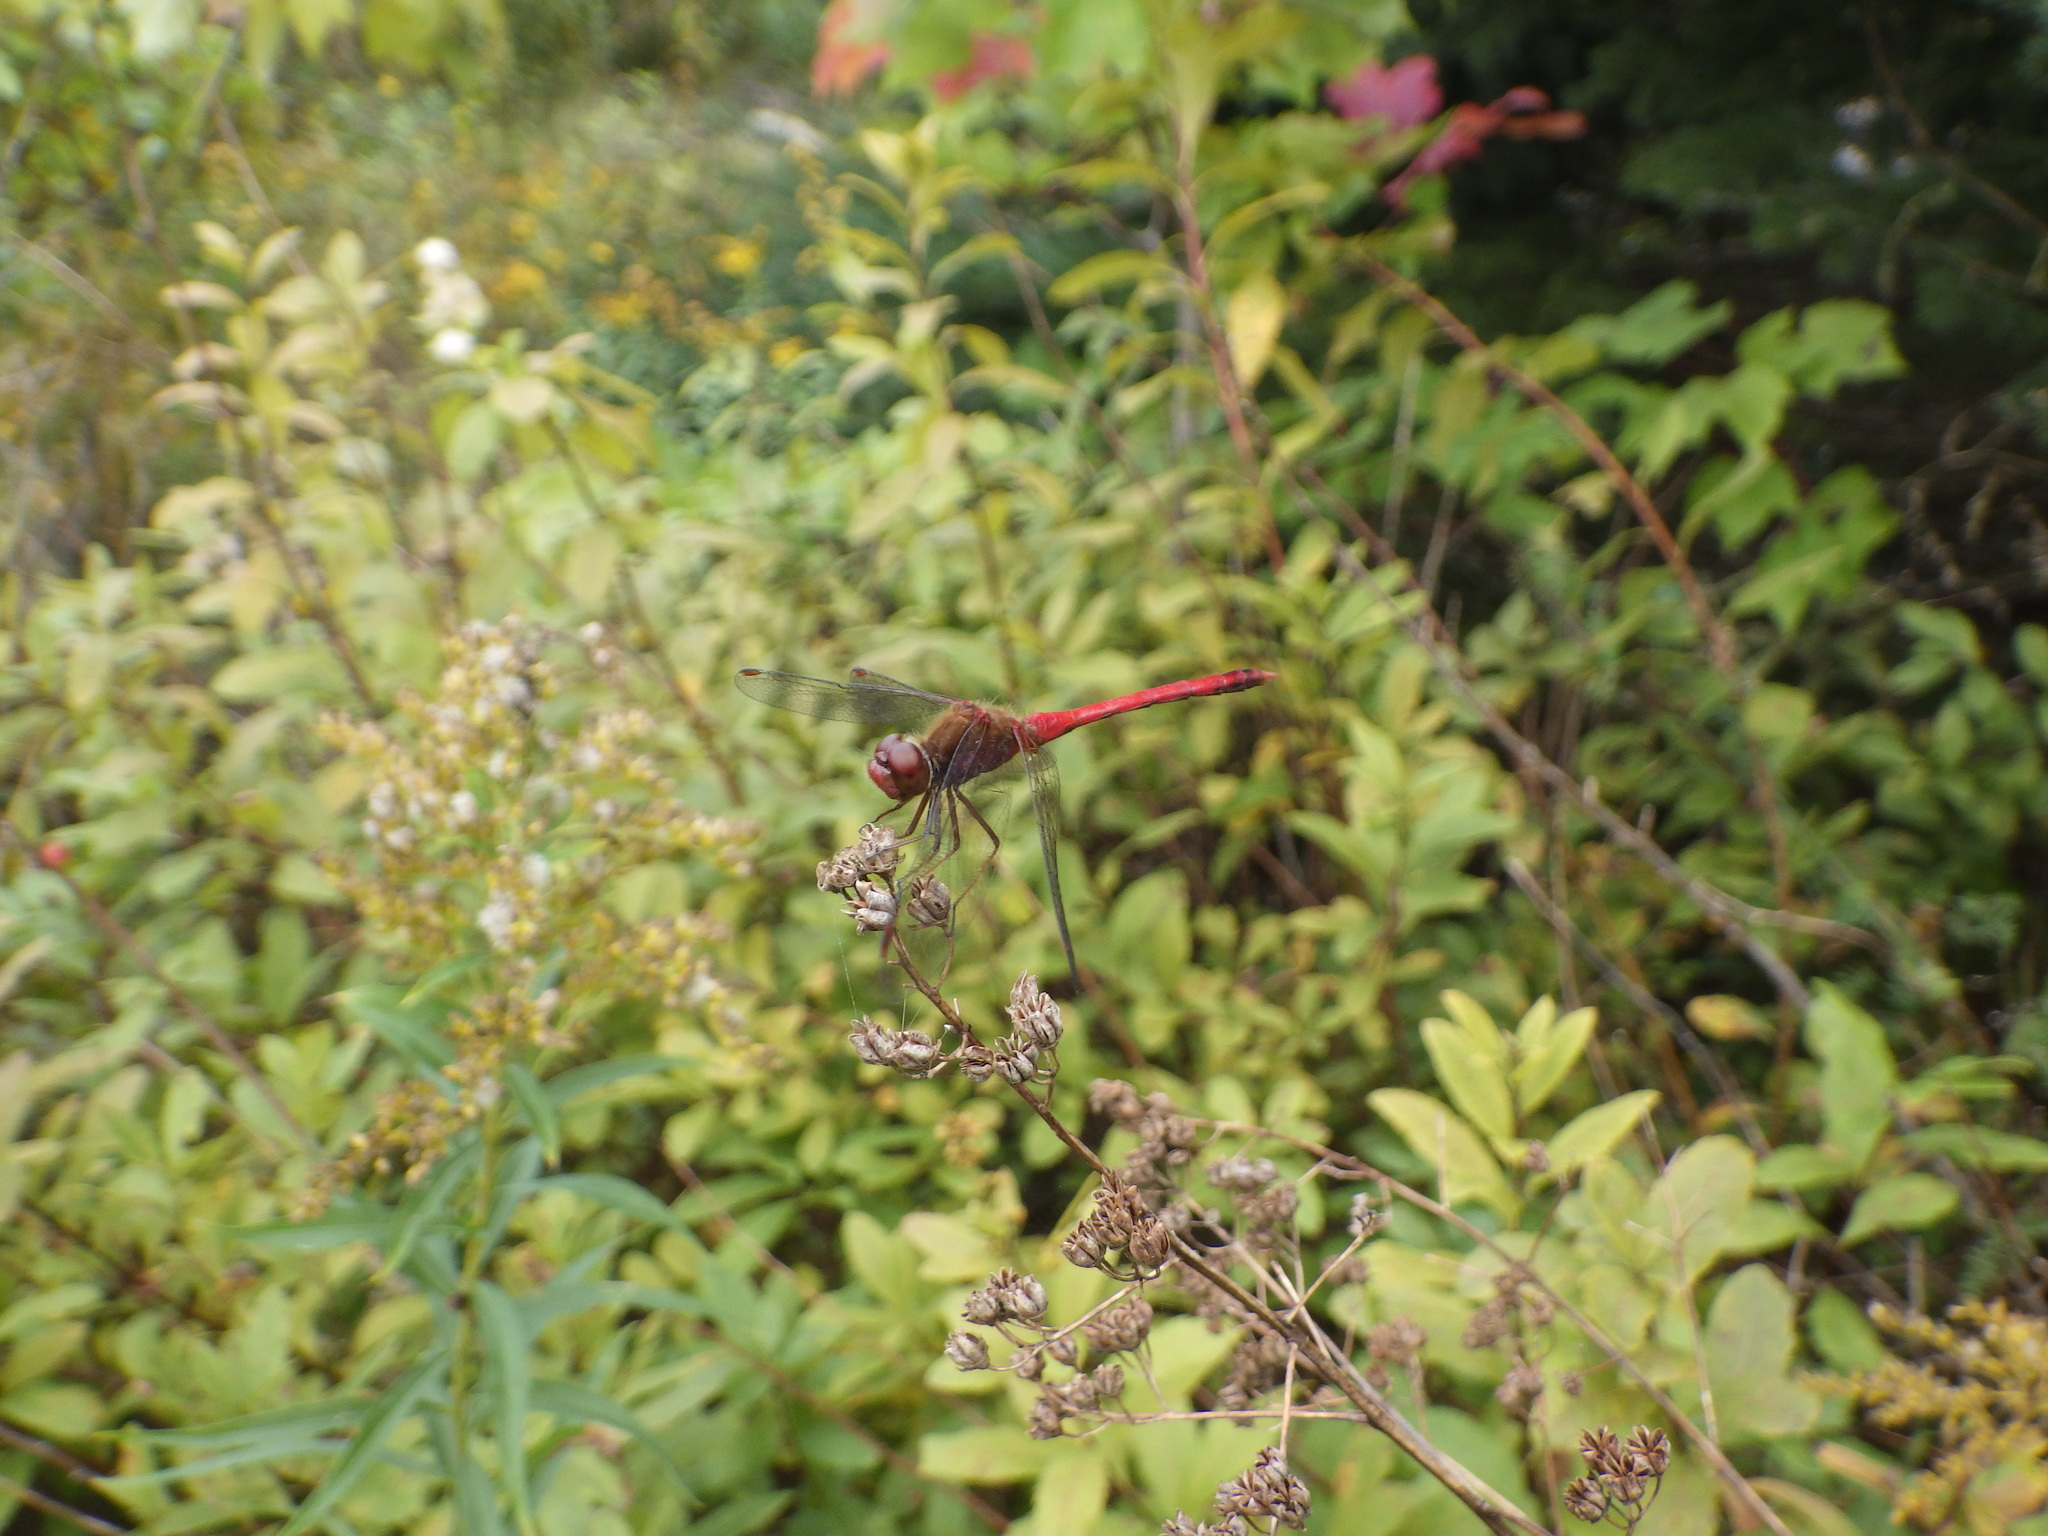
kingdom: Animalia
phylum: Arthropoda
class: Insecta
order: Odonata
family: Libellulidae
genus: Sympetrum
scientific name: Sympetrum vicinum
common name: Autumn meadowhawk
